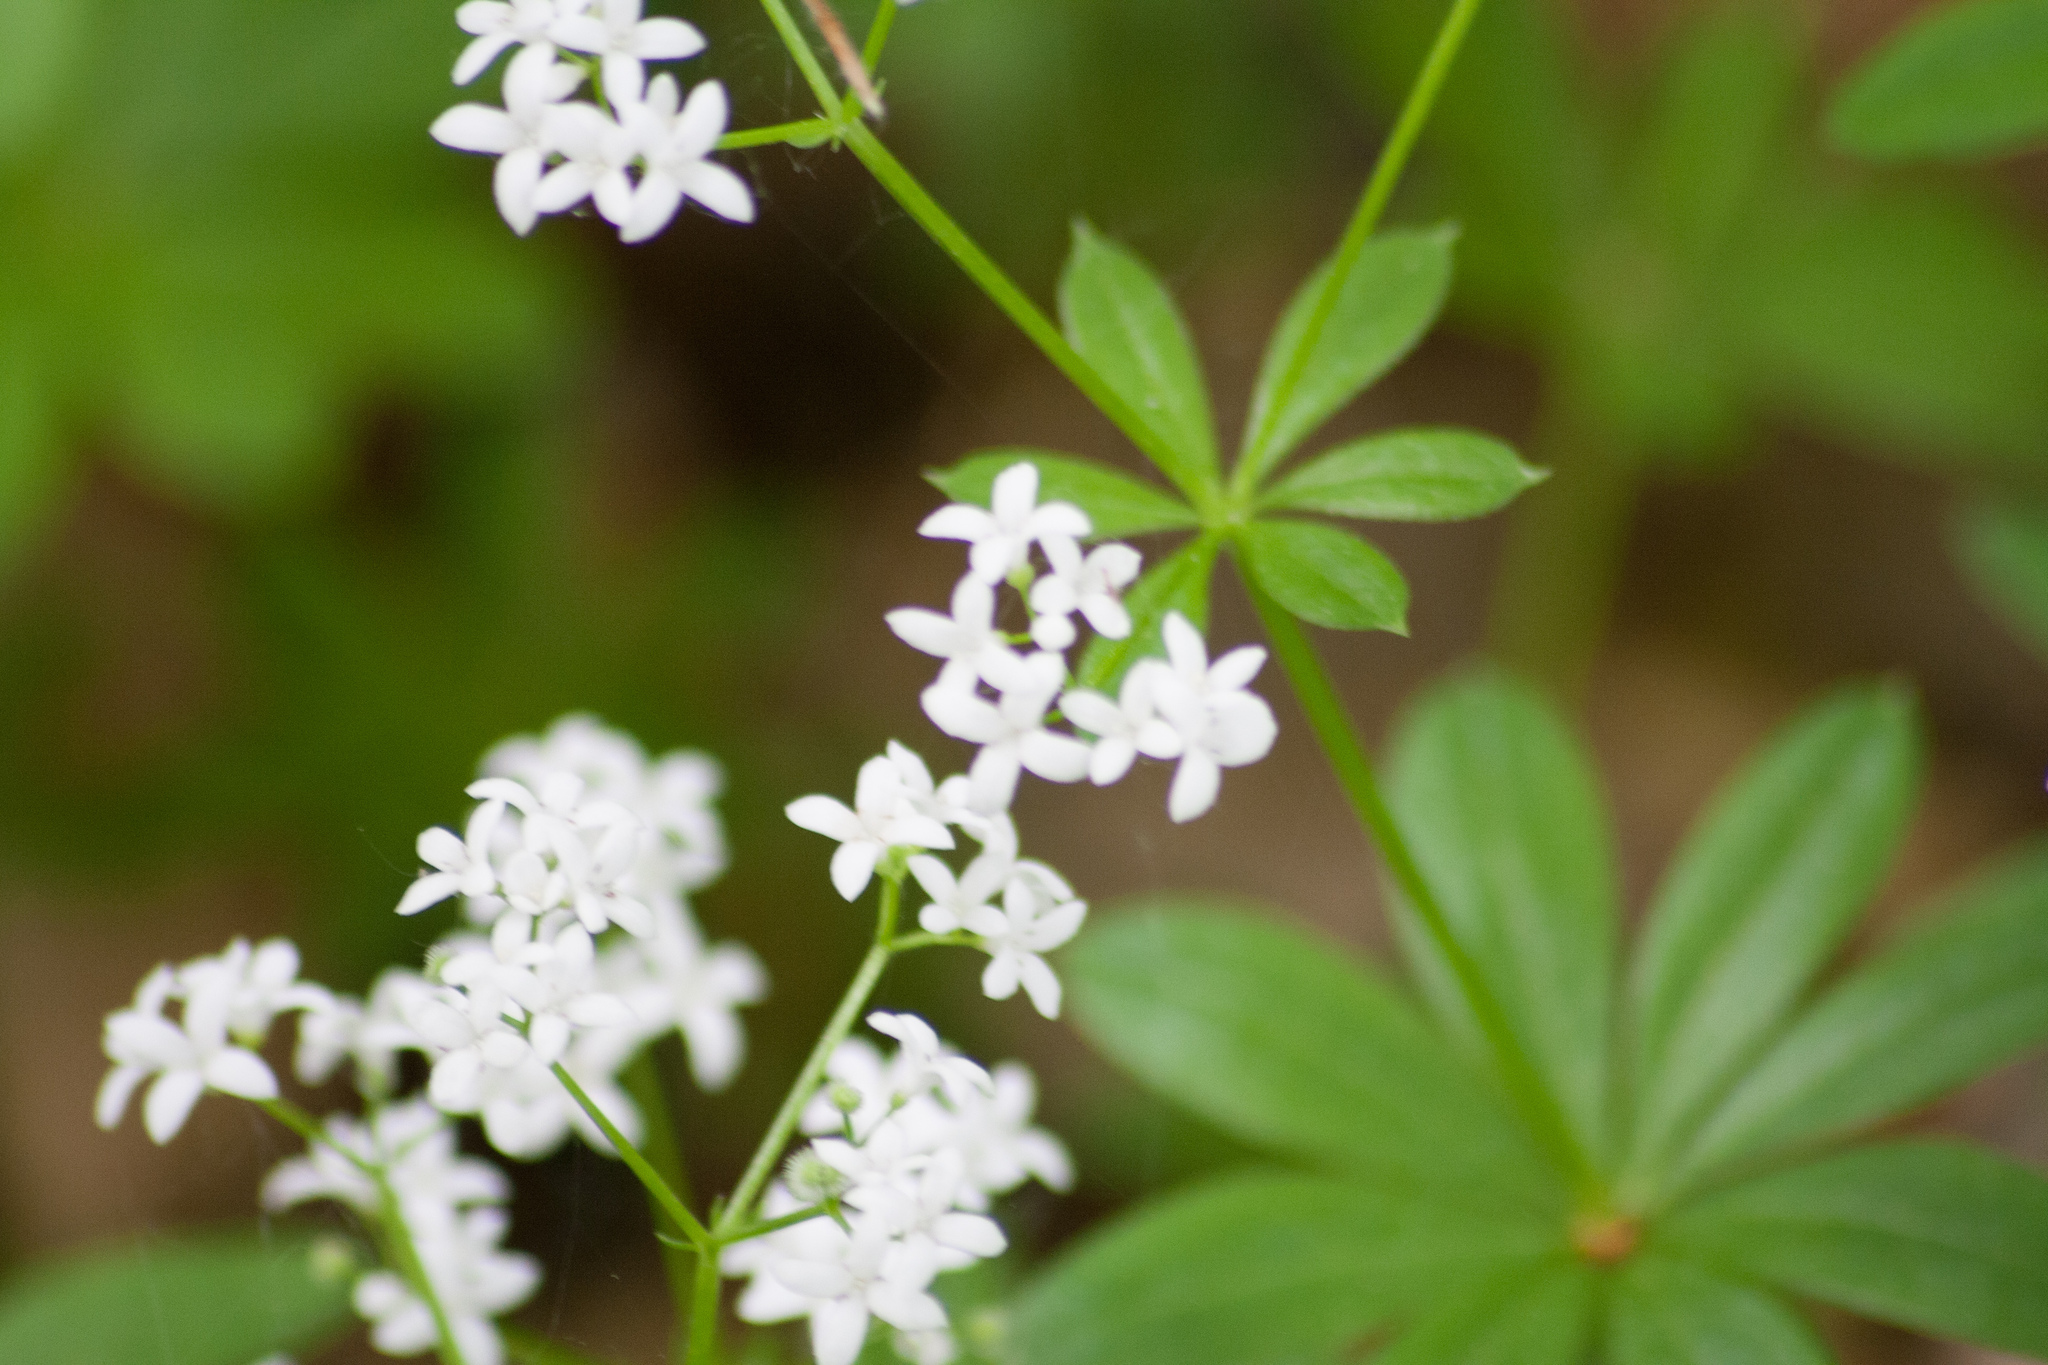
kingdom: Plantae
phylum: Tracheophyta
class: Magnoliopsida
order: Gentianales
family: Rubiaceae
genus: Galium
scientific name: Galium odoratum
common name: Sweet woodruff
